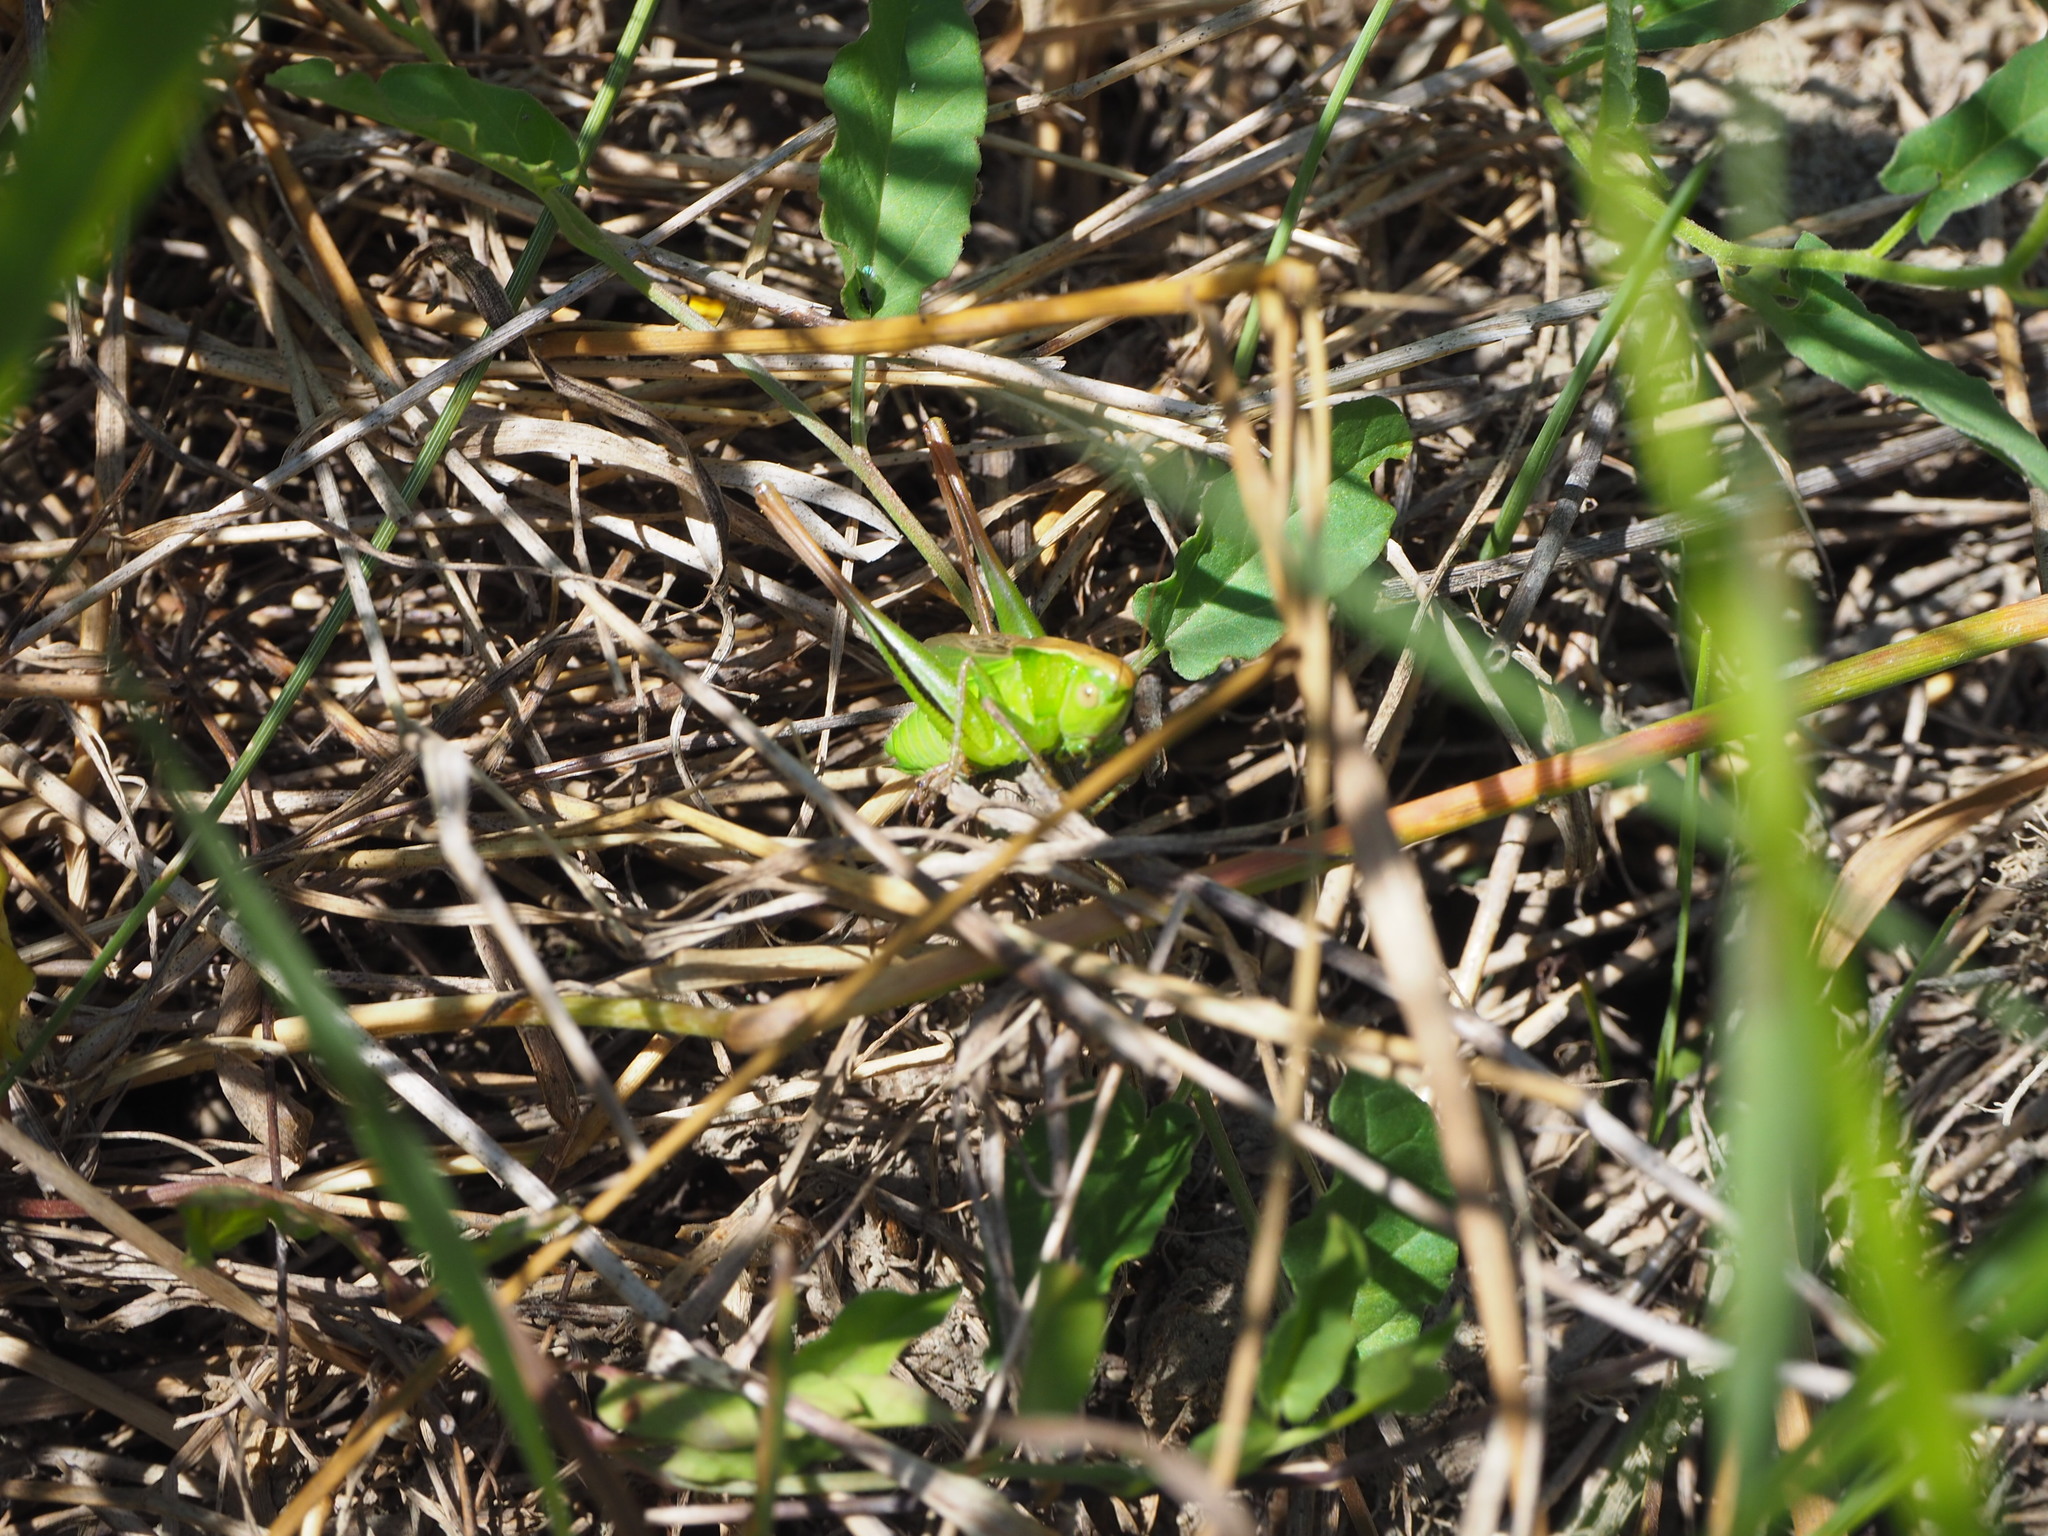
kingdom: Animalia
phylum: Arthropoda
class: Insecta
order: Orthoptera
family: Tettigoniidae
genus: Bicolorana
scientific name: Bicolorana bicolor
